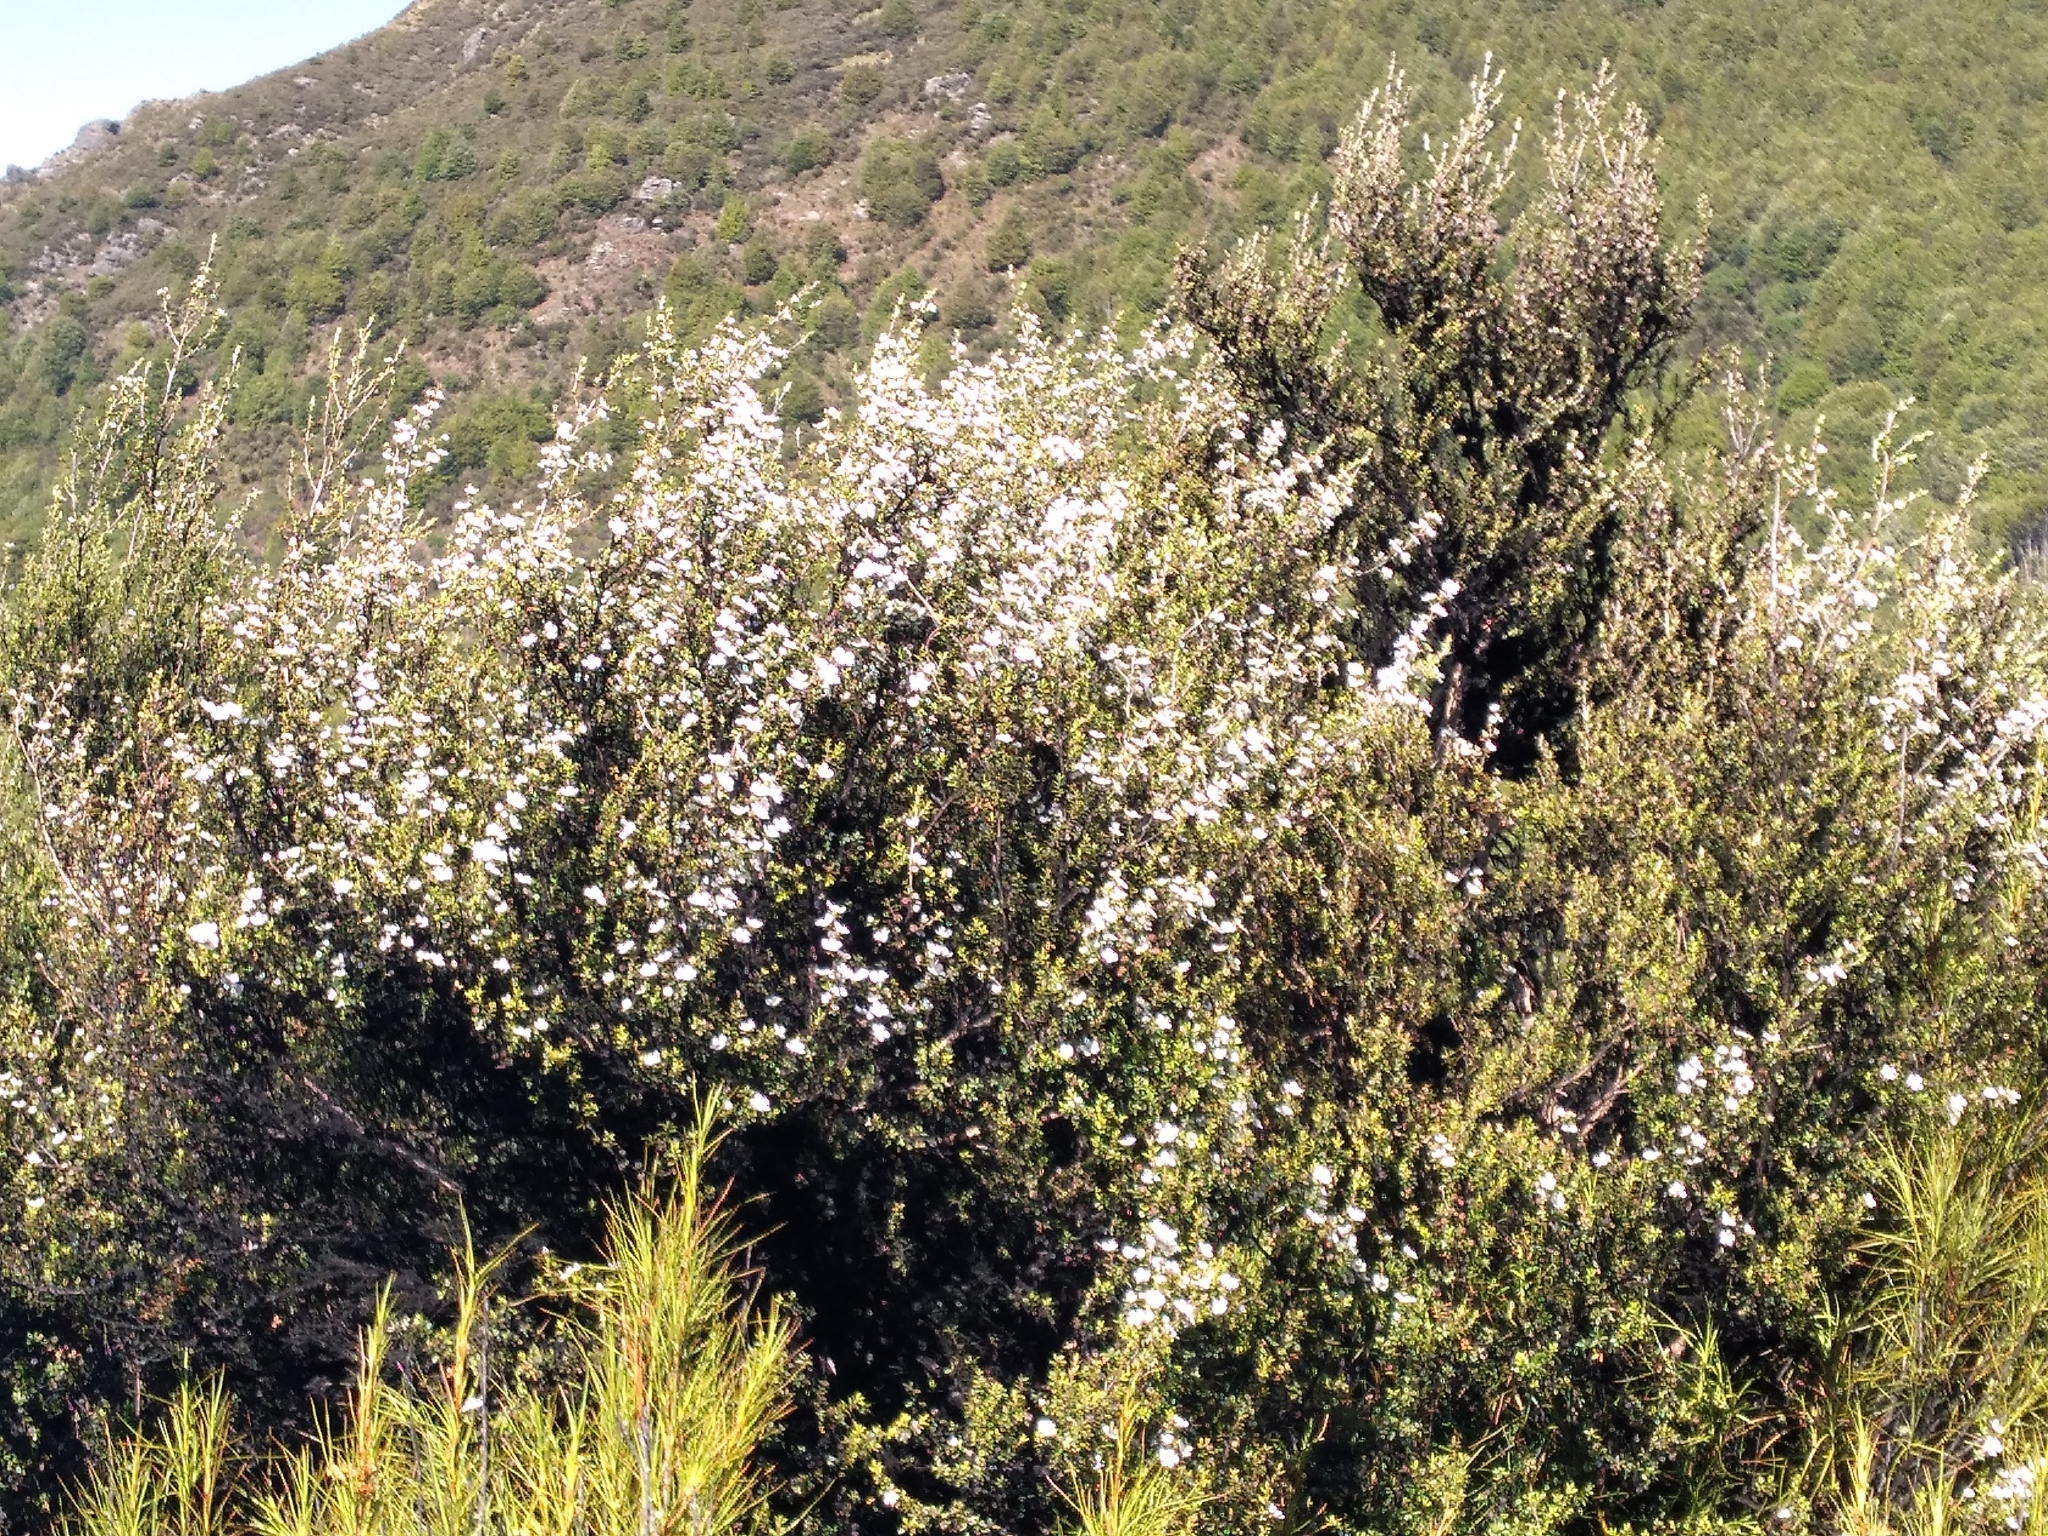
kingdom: Plantae
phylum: Tracheophyta
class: Magnoliopsida
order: Myrtales
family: Myrtaceae
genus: Leptospermum
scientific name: Leptospermum scoparium
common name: Broom tea-tree
